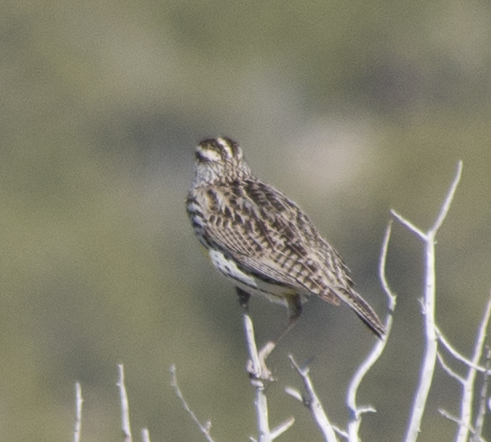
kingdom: Animalia
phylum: Chordata
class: Aves
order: Passeriformes
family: Icteridae
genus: Sturnella
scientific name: Sturnella neglecta
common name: Western meadowlark
